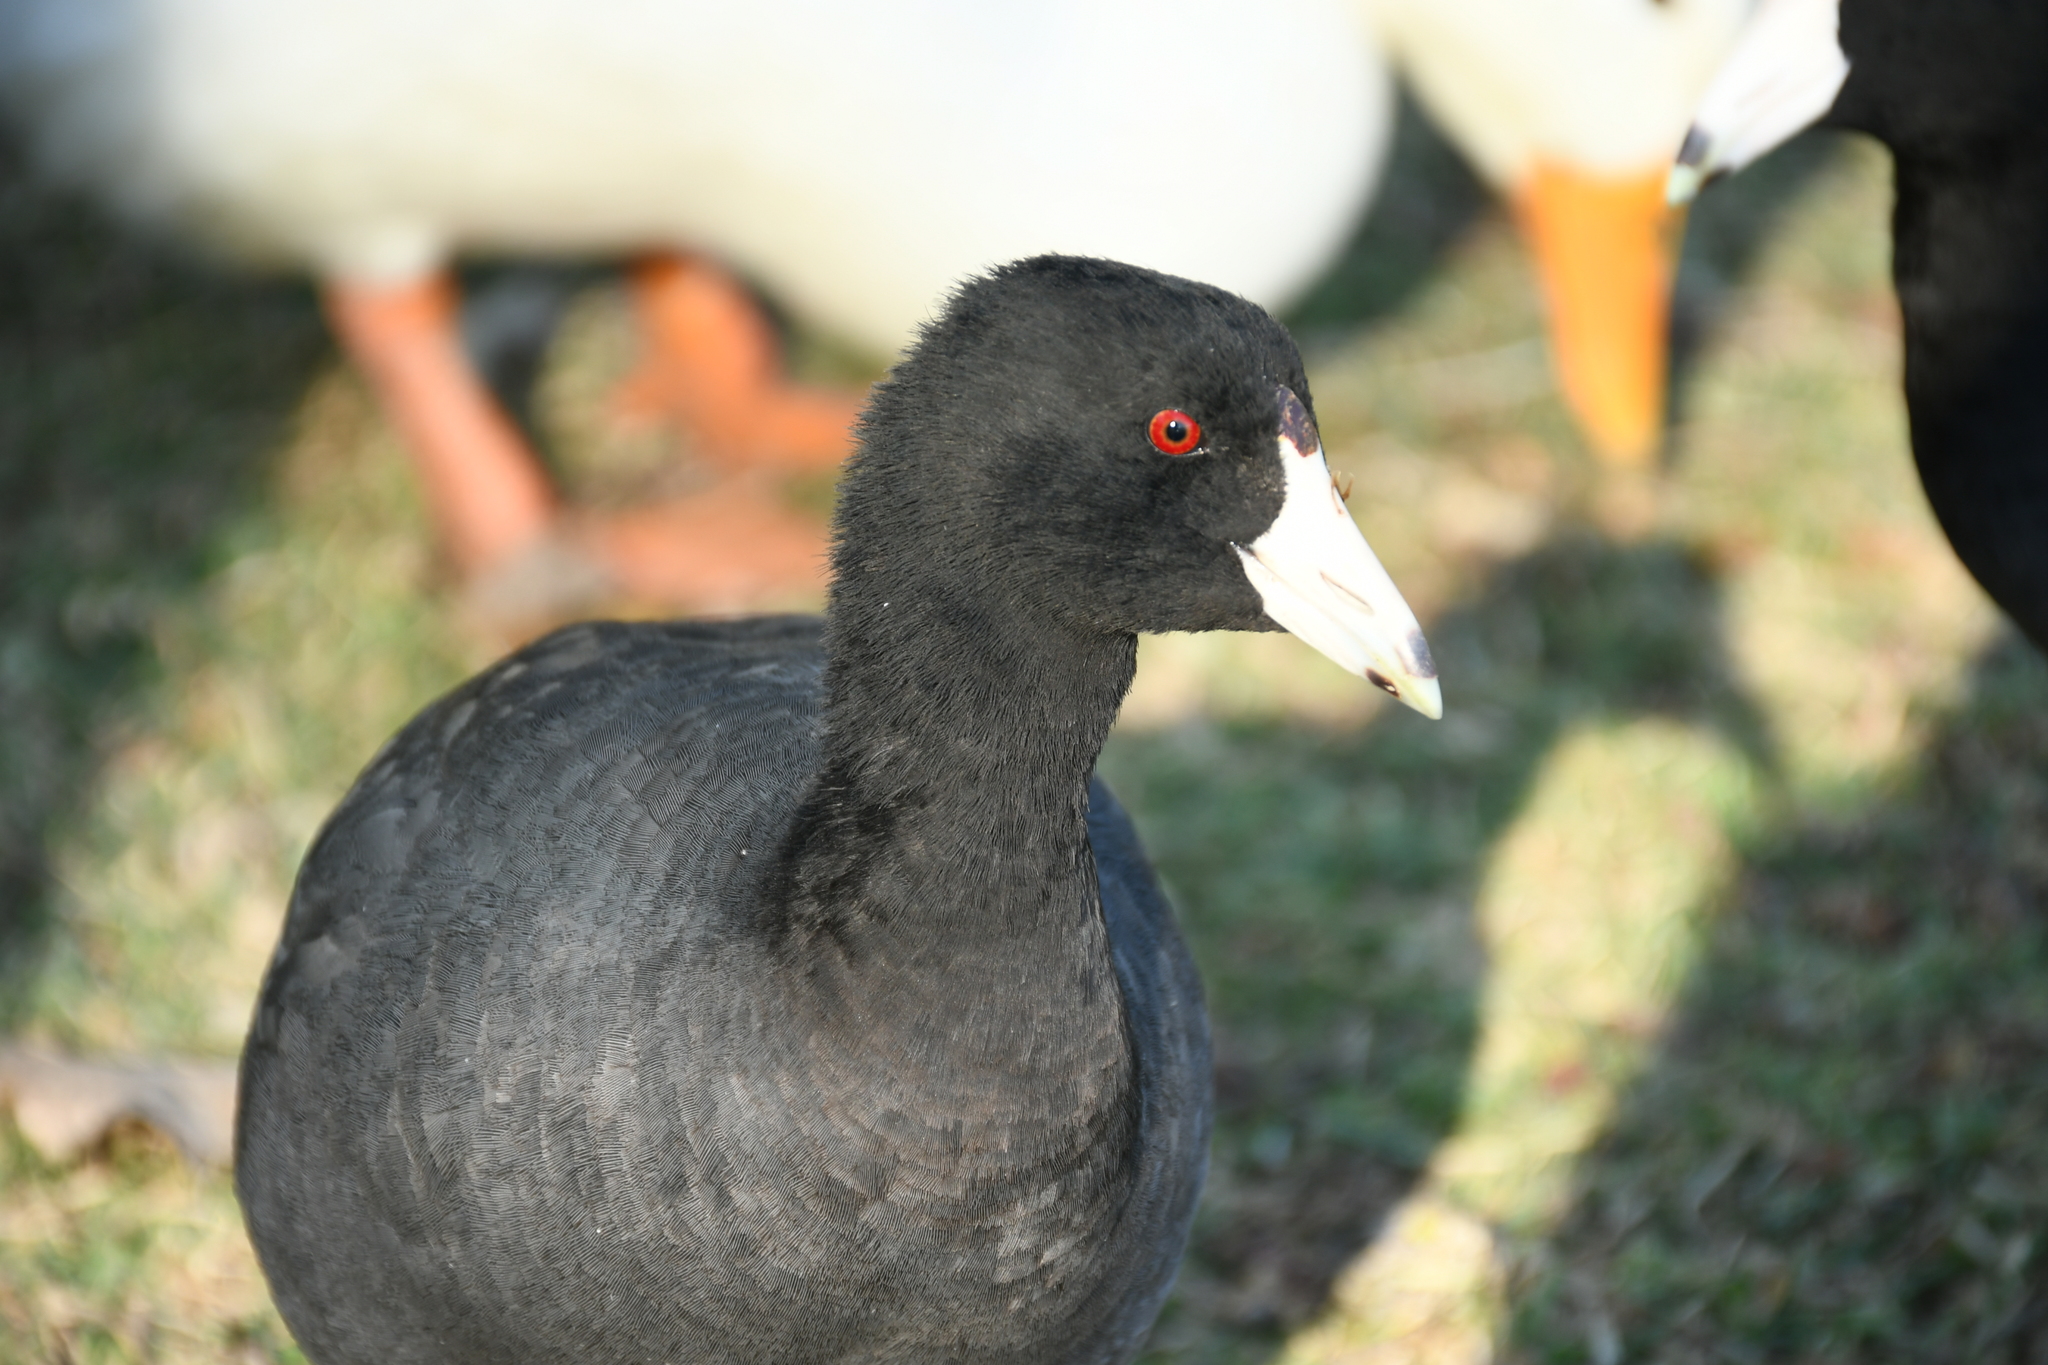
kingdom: Animalia
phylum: Chordata
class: Aves
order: Gruiformes
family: Rallidae
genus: Fulica
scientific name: Fulica americana
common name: American coot
